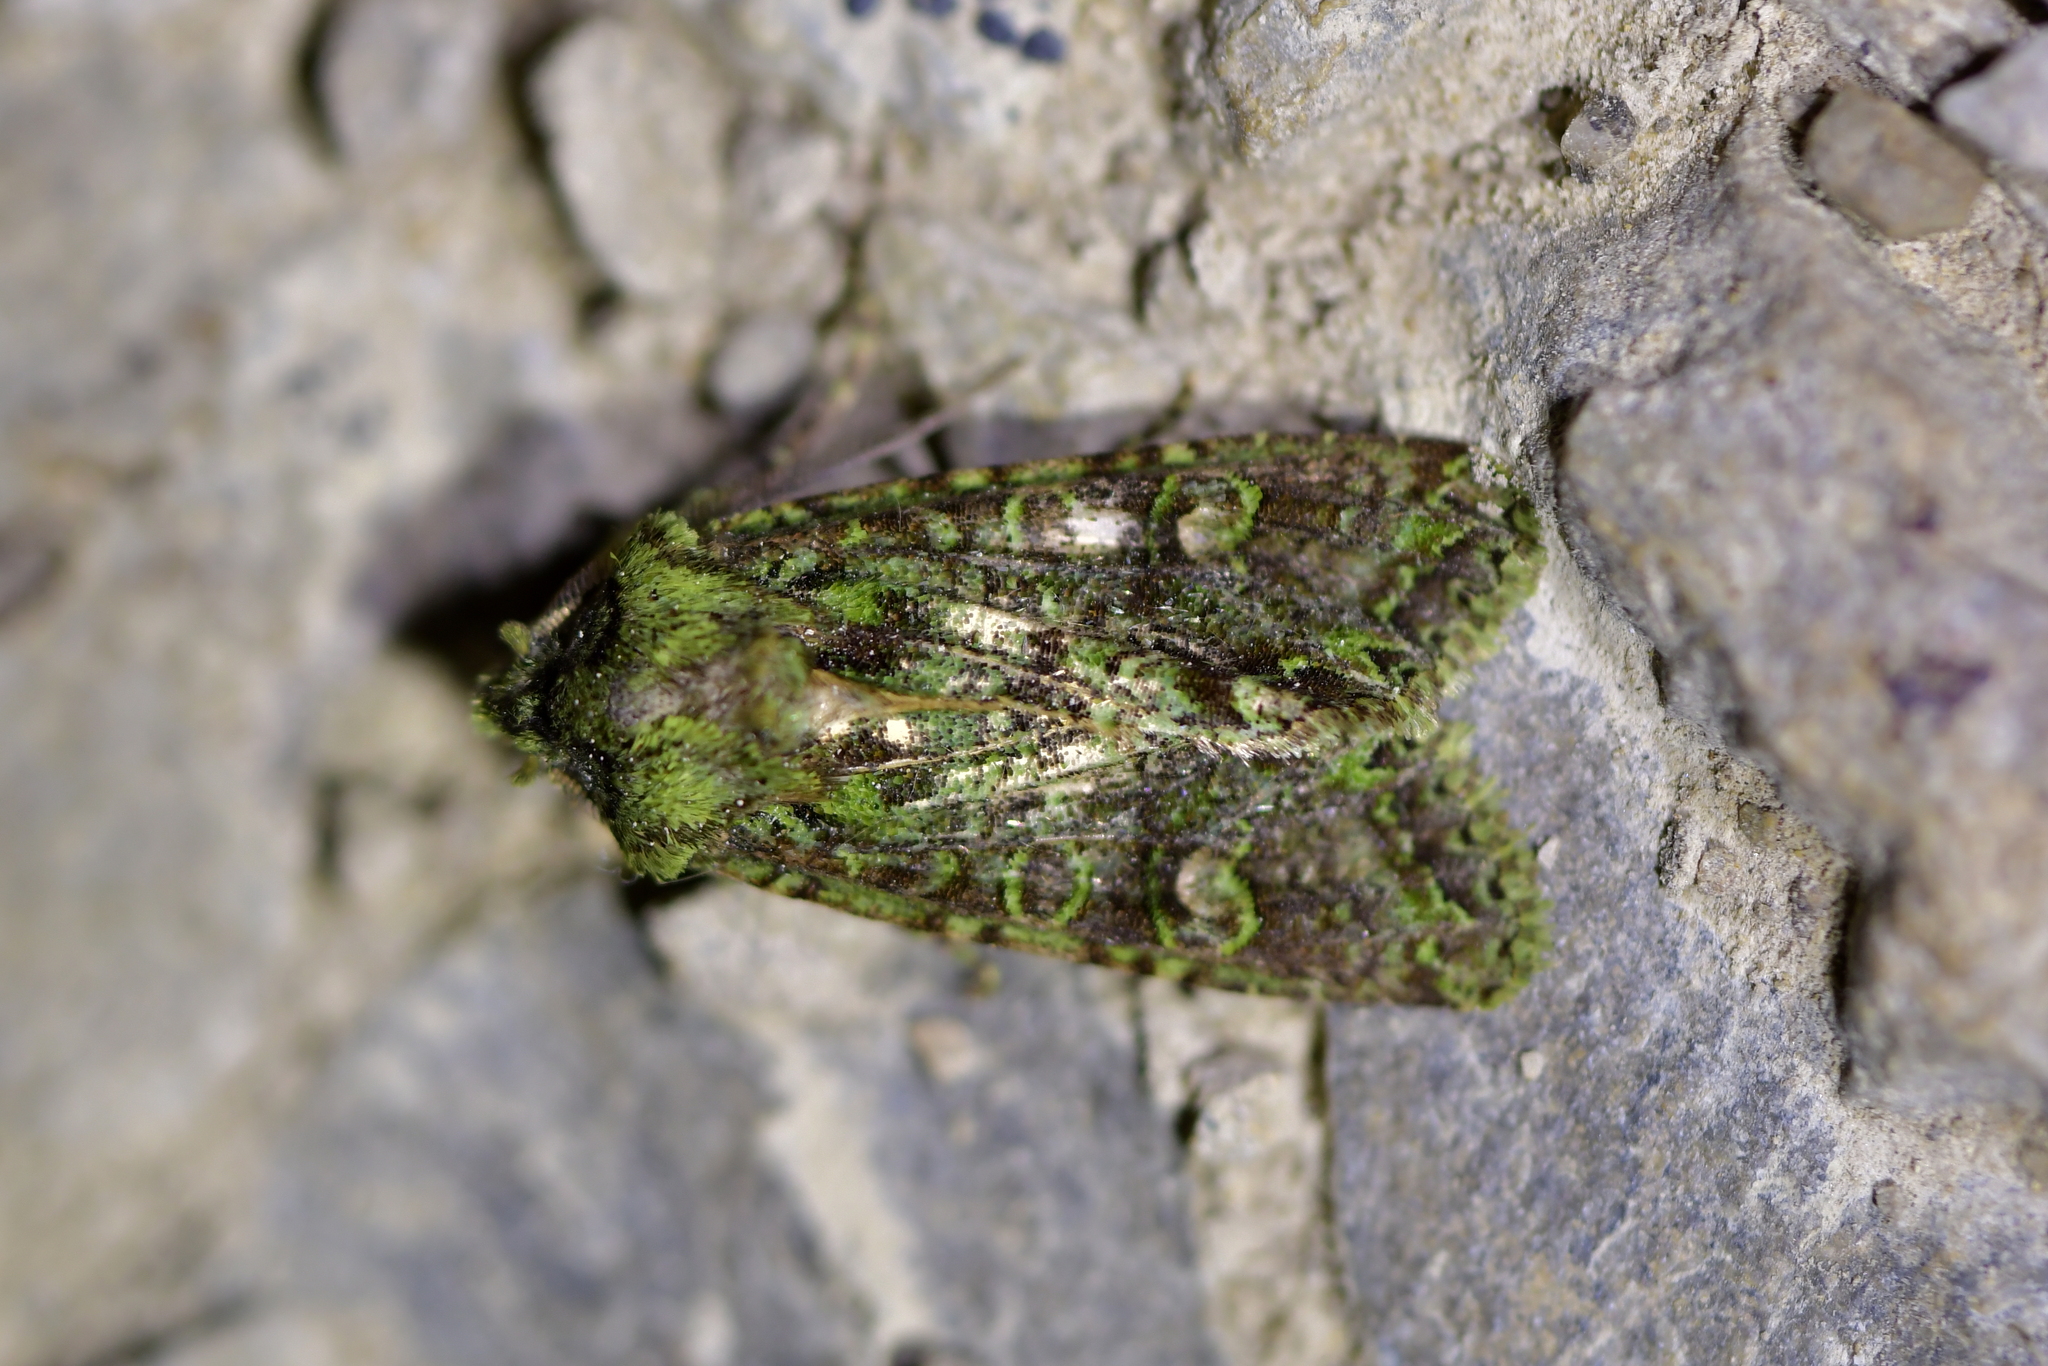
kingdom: Animalia
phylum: Arthropoda
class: Insecta
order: Lepidoptera
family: Noctuidae
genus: Ichneutica
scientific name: Ichneutica
